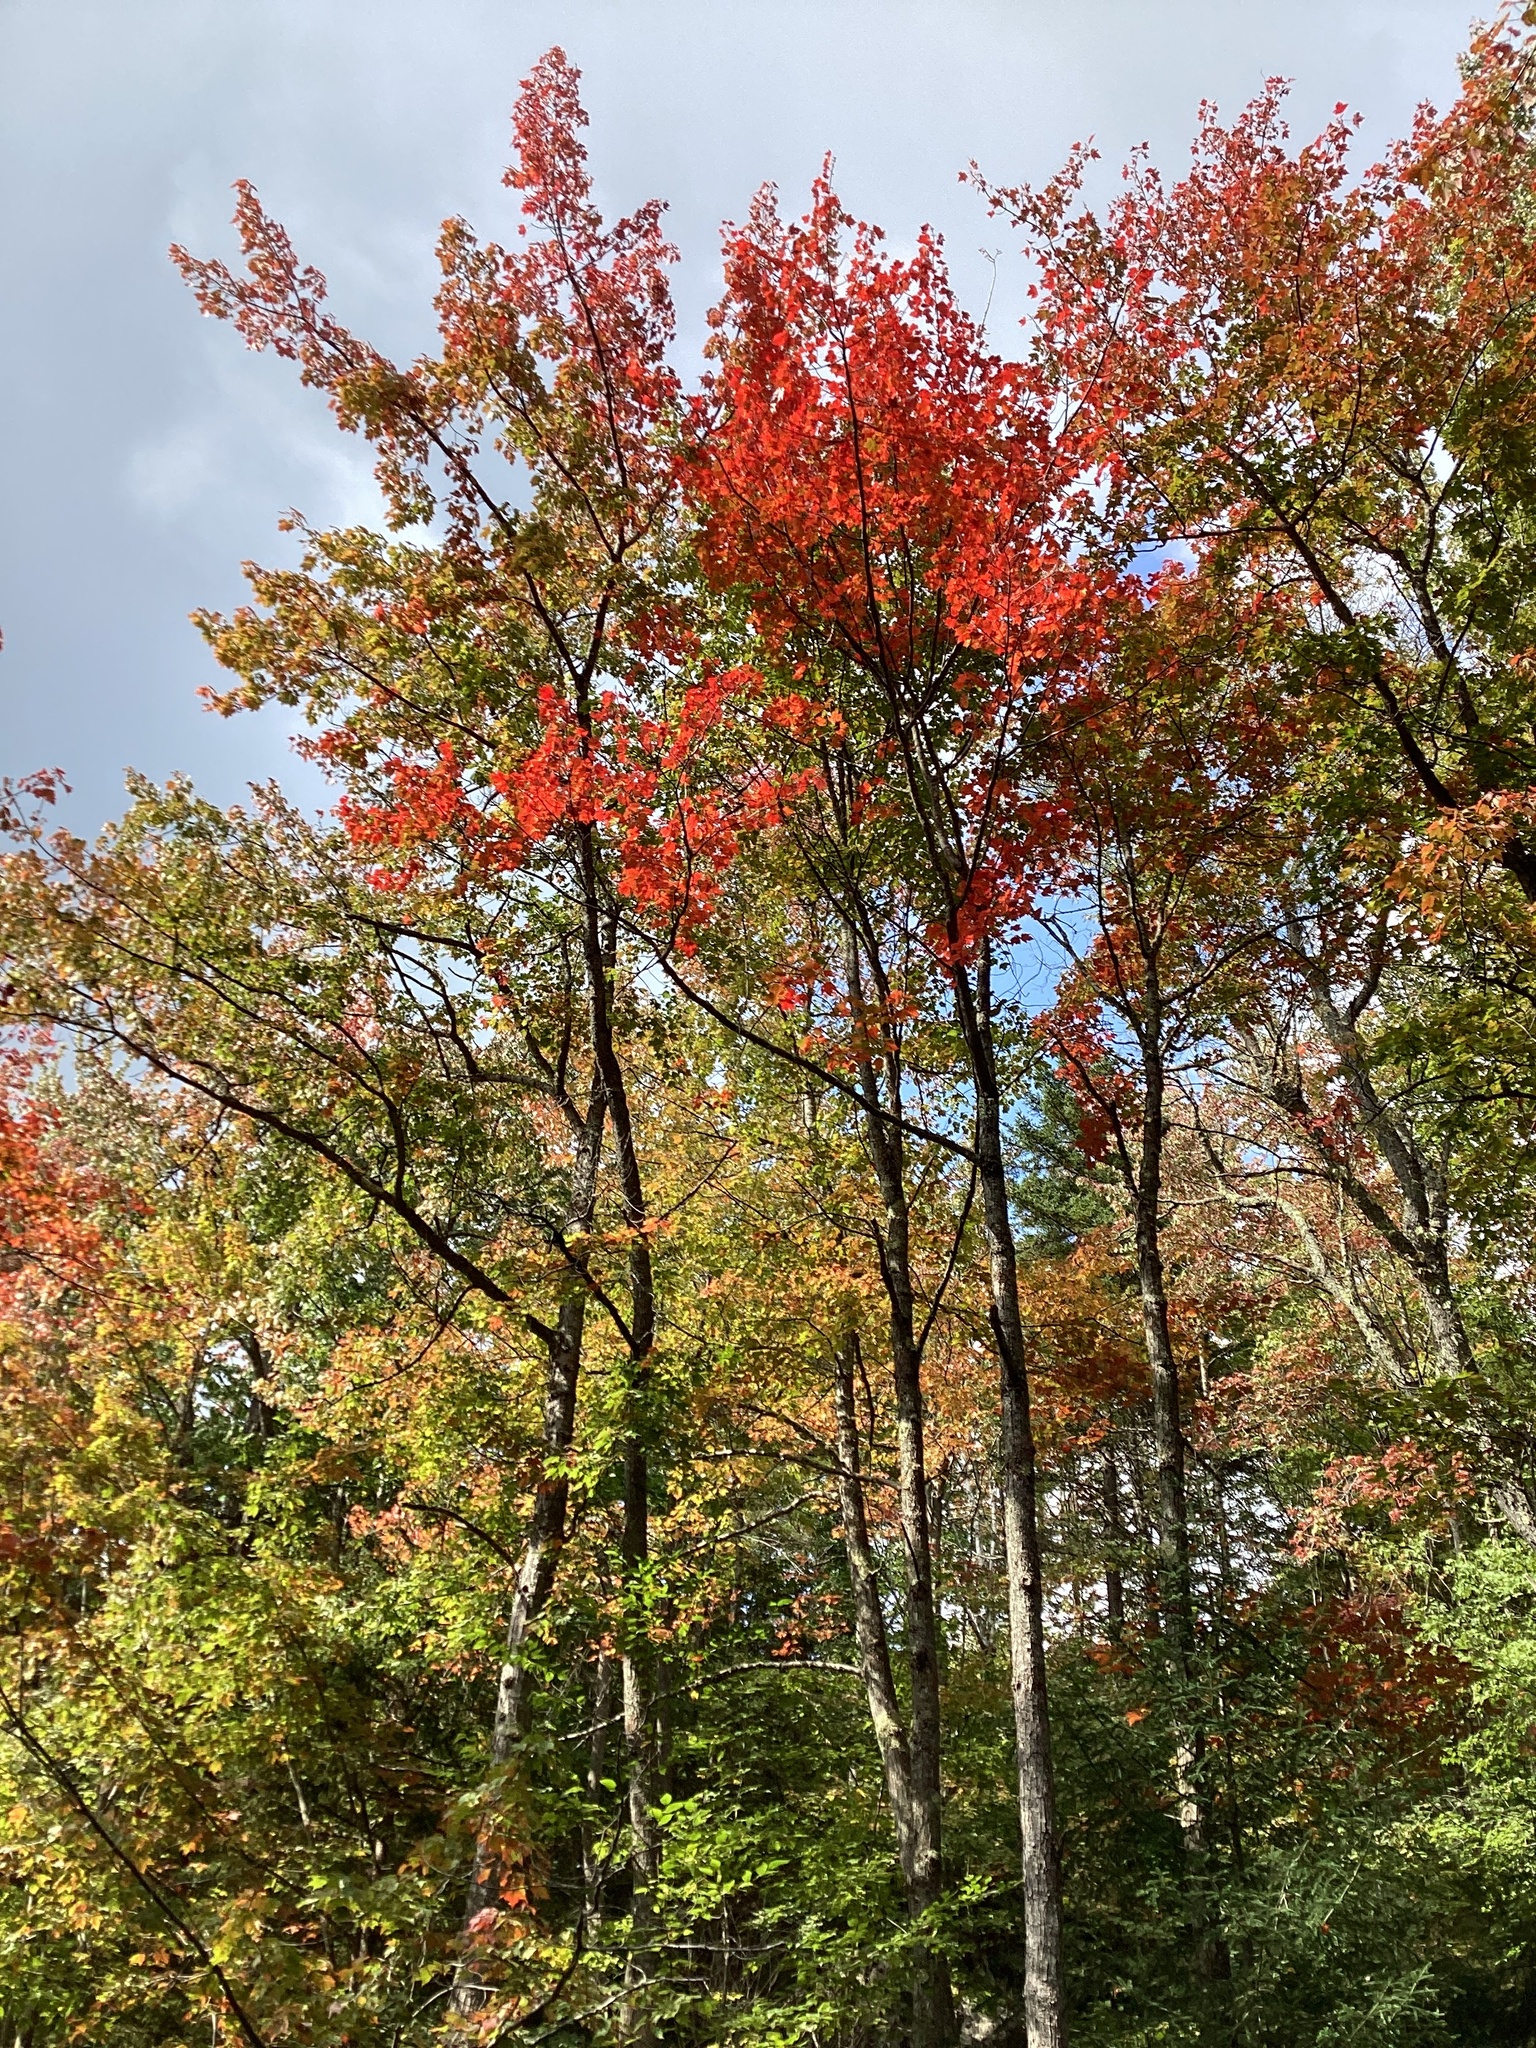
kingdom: Plantae
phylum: Tracheophyta
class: Magnoliopsida
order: Sapindales
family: Sapindaceae
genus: Acer
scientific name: Acer rubrum
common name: Red maple
